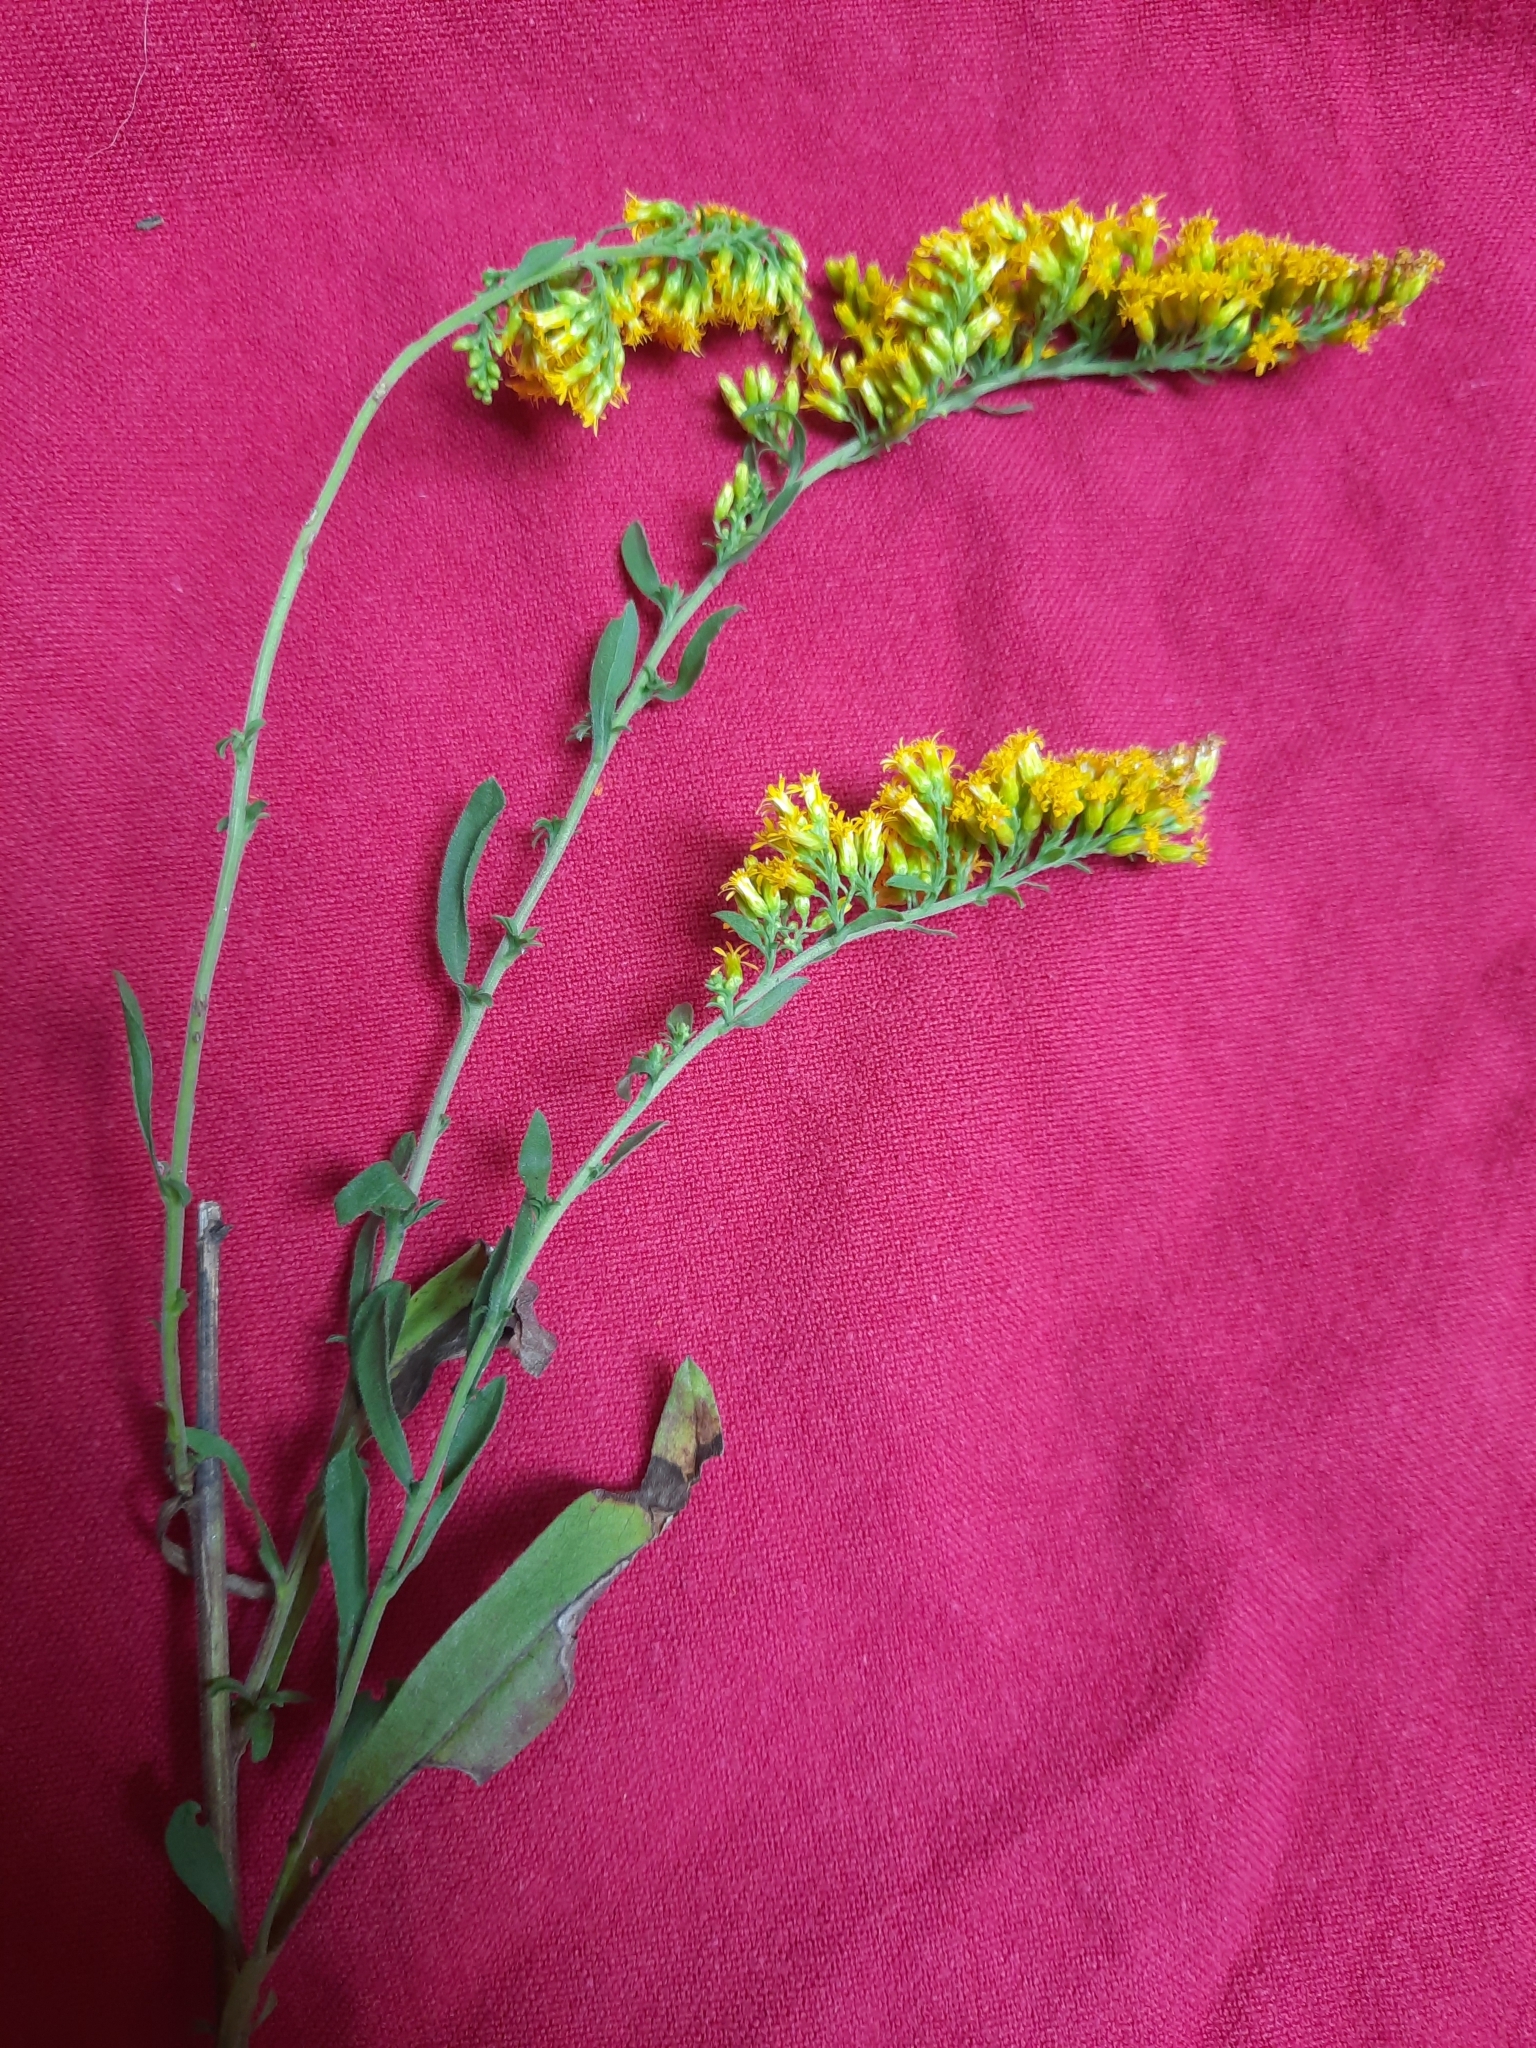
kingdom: Plantae
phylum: Tracheophyta
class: Magnoliopsida
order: Asterales
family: Asteraceae
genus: Solidago
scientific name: Solidago nemoralis
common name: Grey goldenrod
